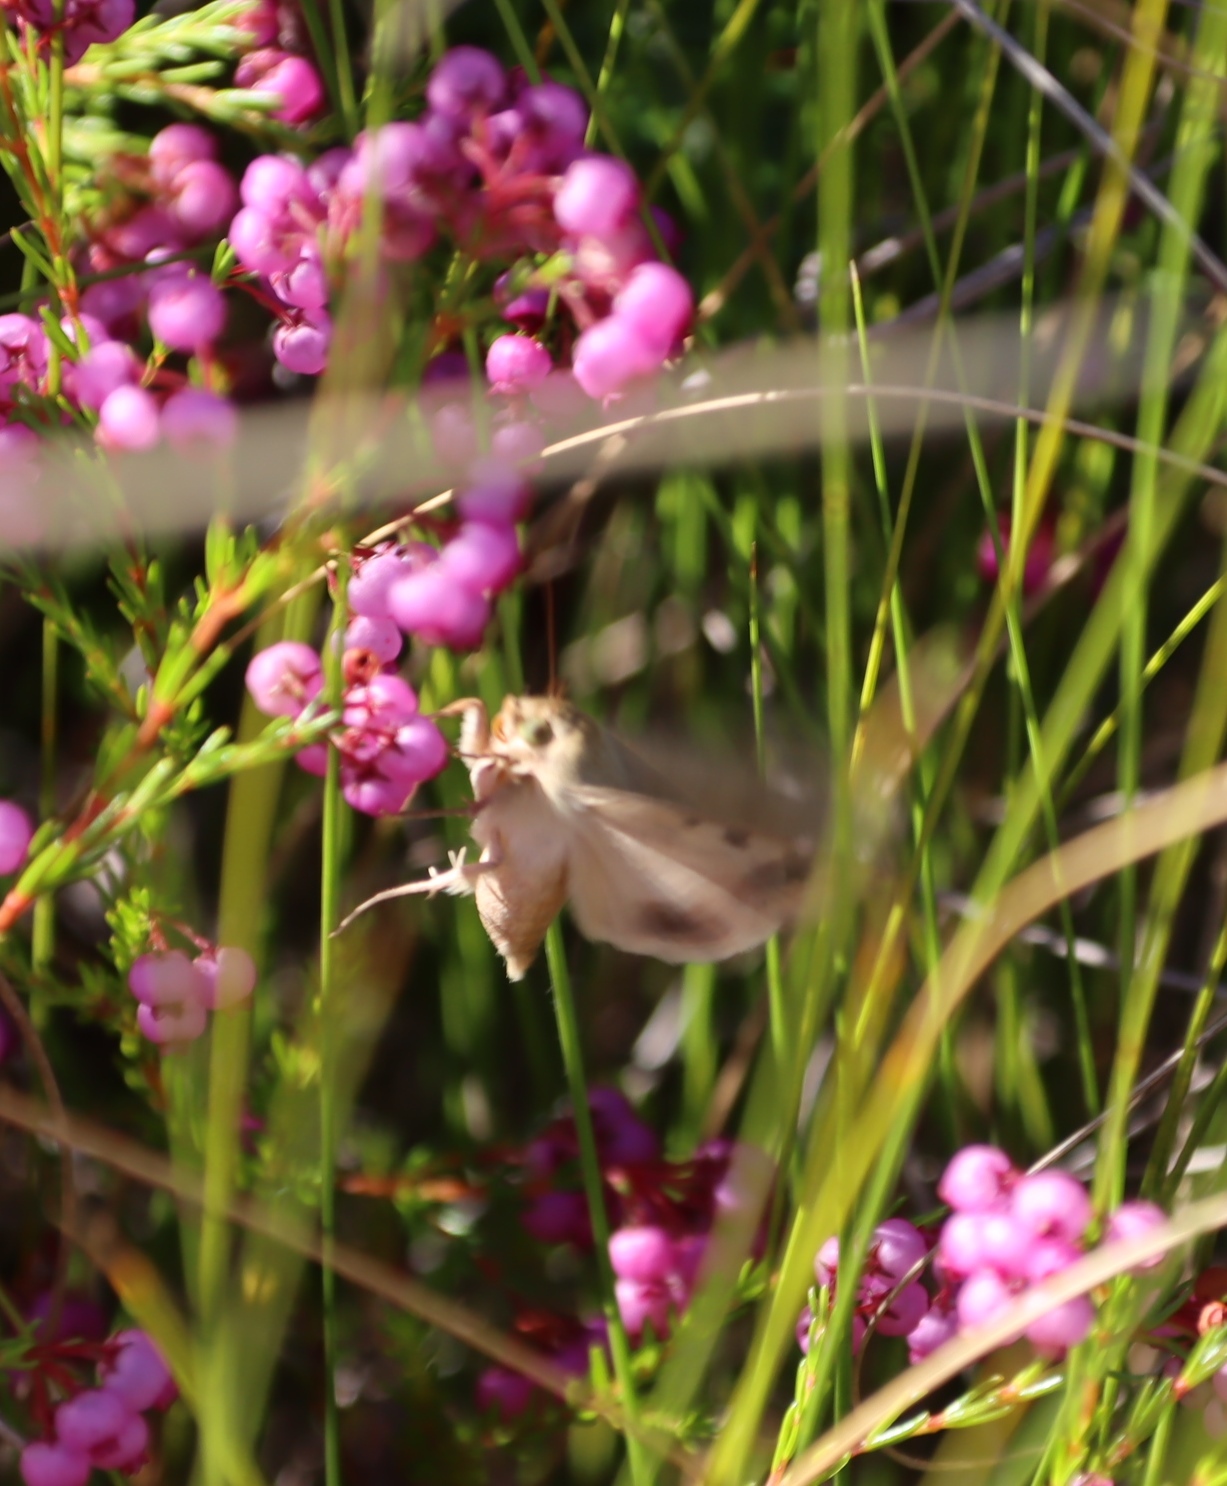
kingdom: Plantae
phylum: Tracheophyta
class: Magnoliopsida
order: Ericales
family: Ericaceae
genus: Erica
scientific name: Erica multumbellifera
